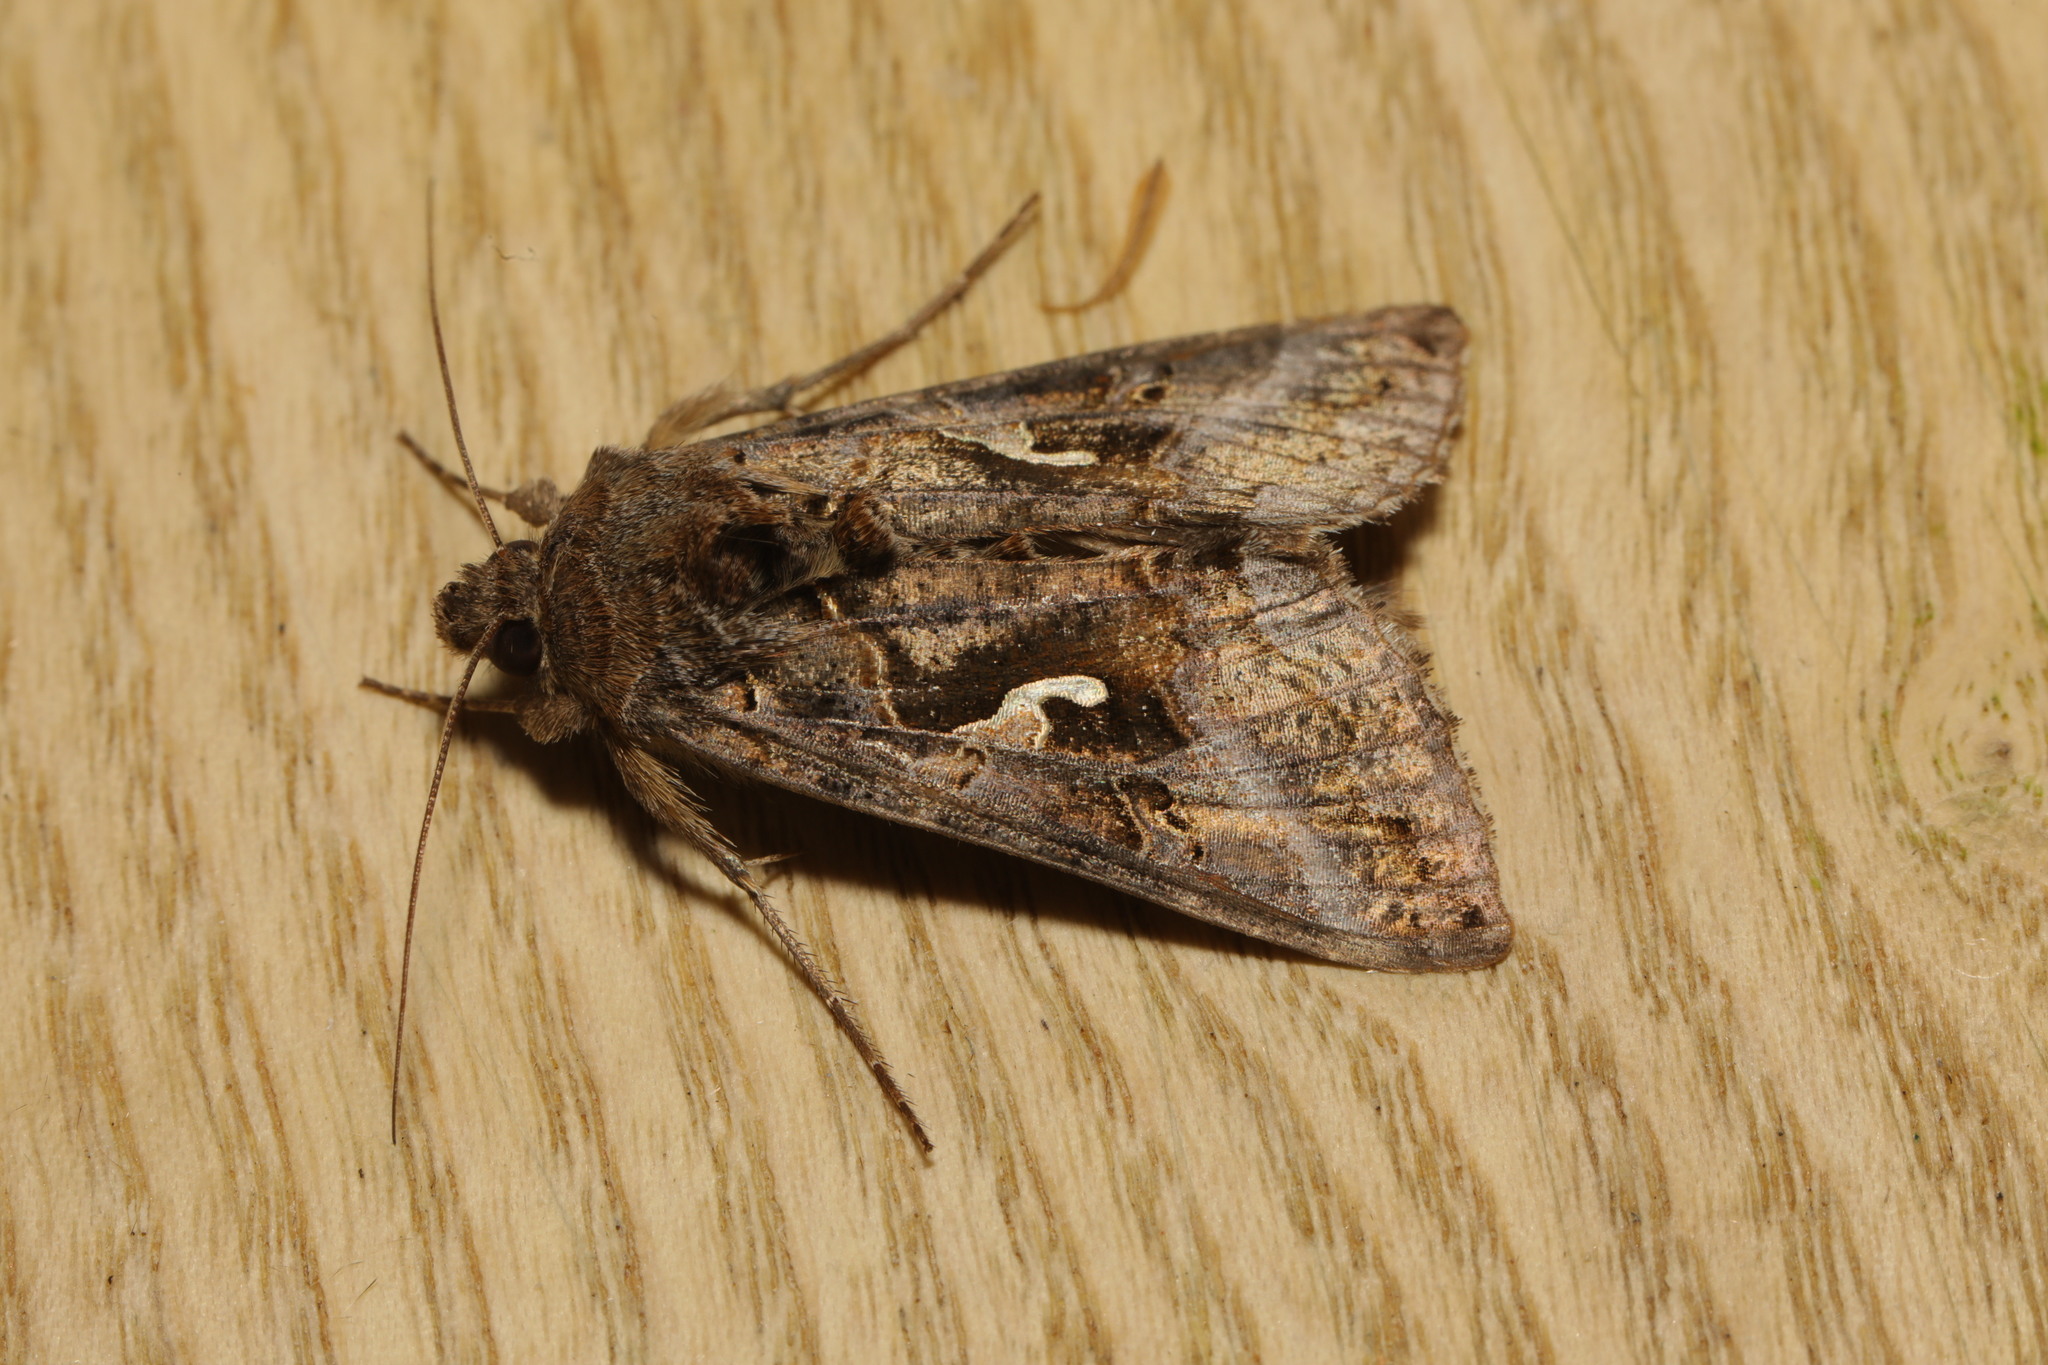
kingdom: Animalia
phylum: Arthropoda
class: Insecta
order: Lepidoptera
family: Noctuidae
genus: Autographa
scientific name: Autographa gamma
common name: Silver y
